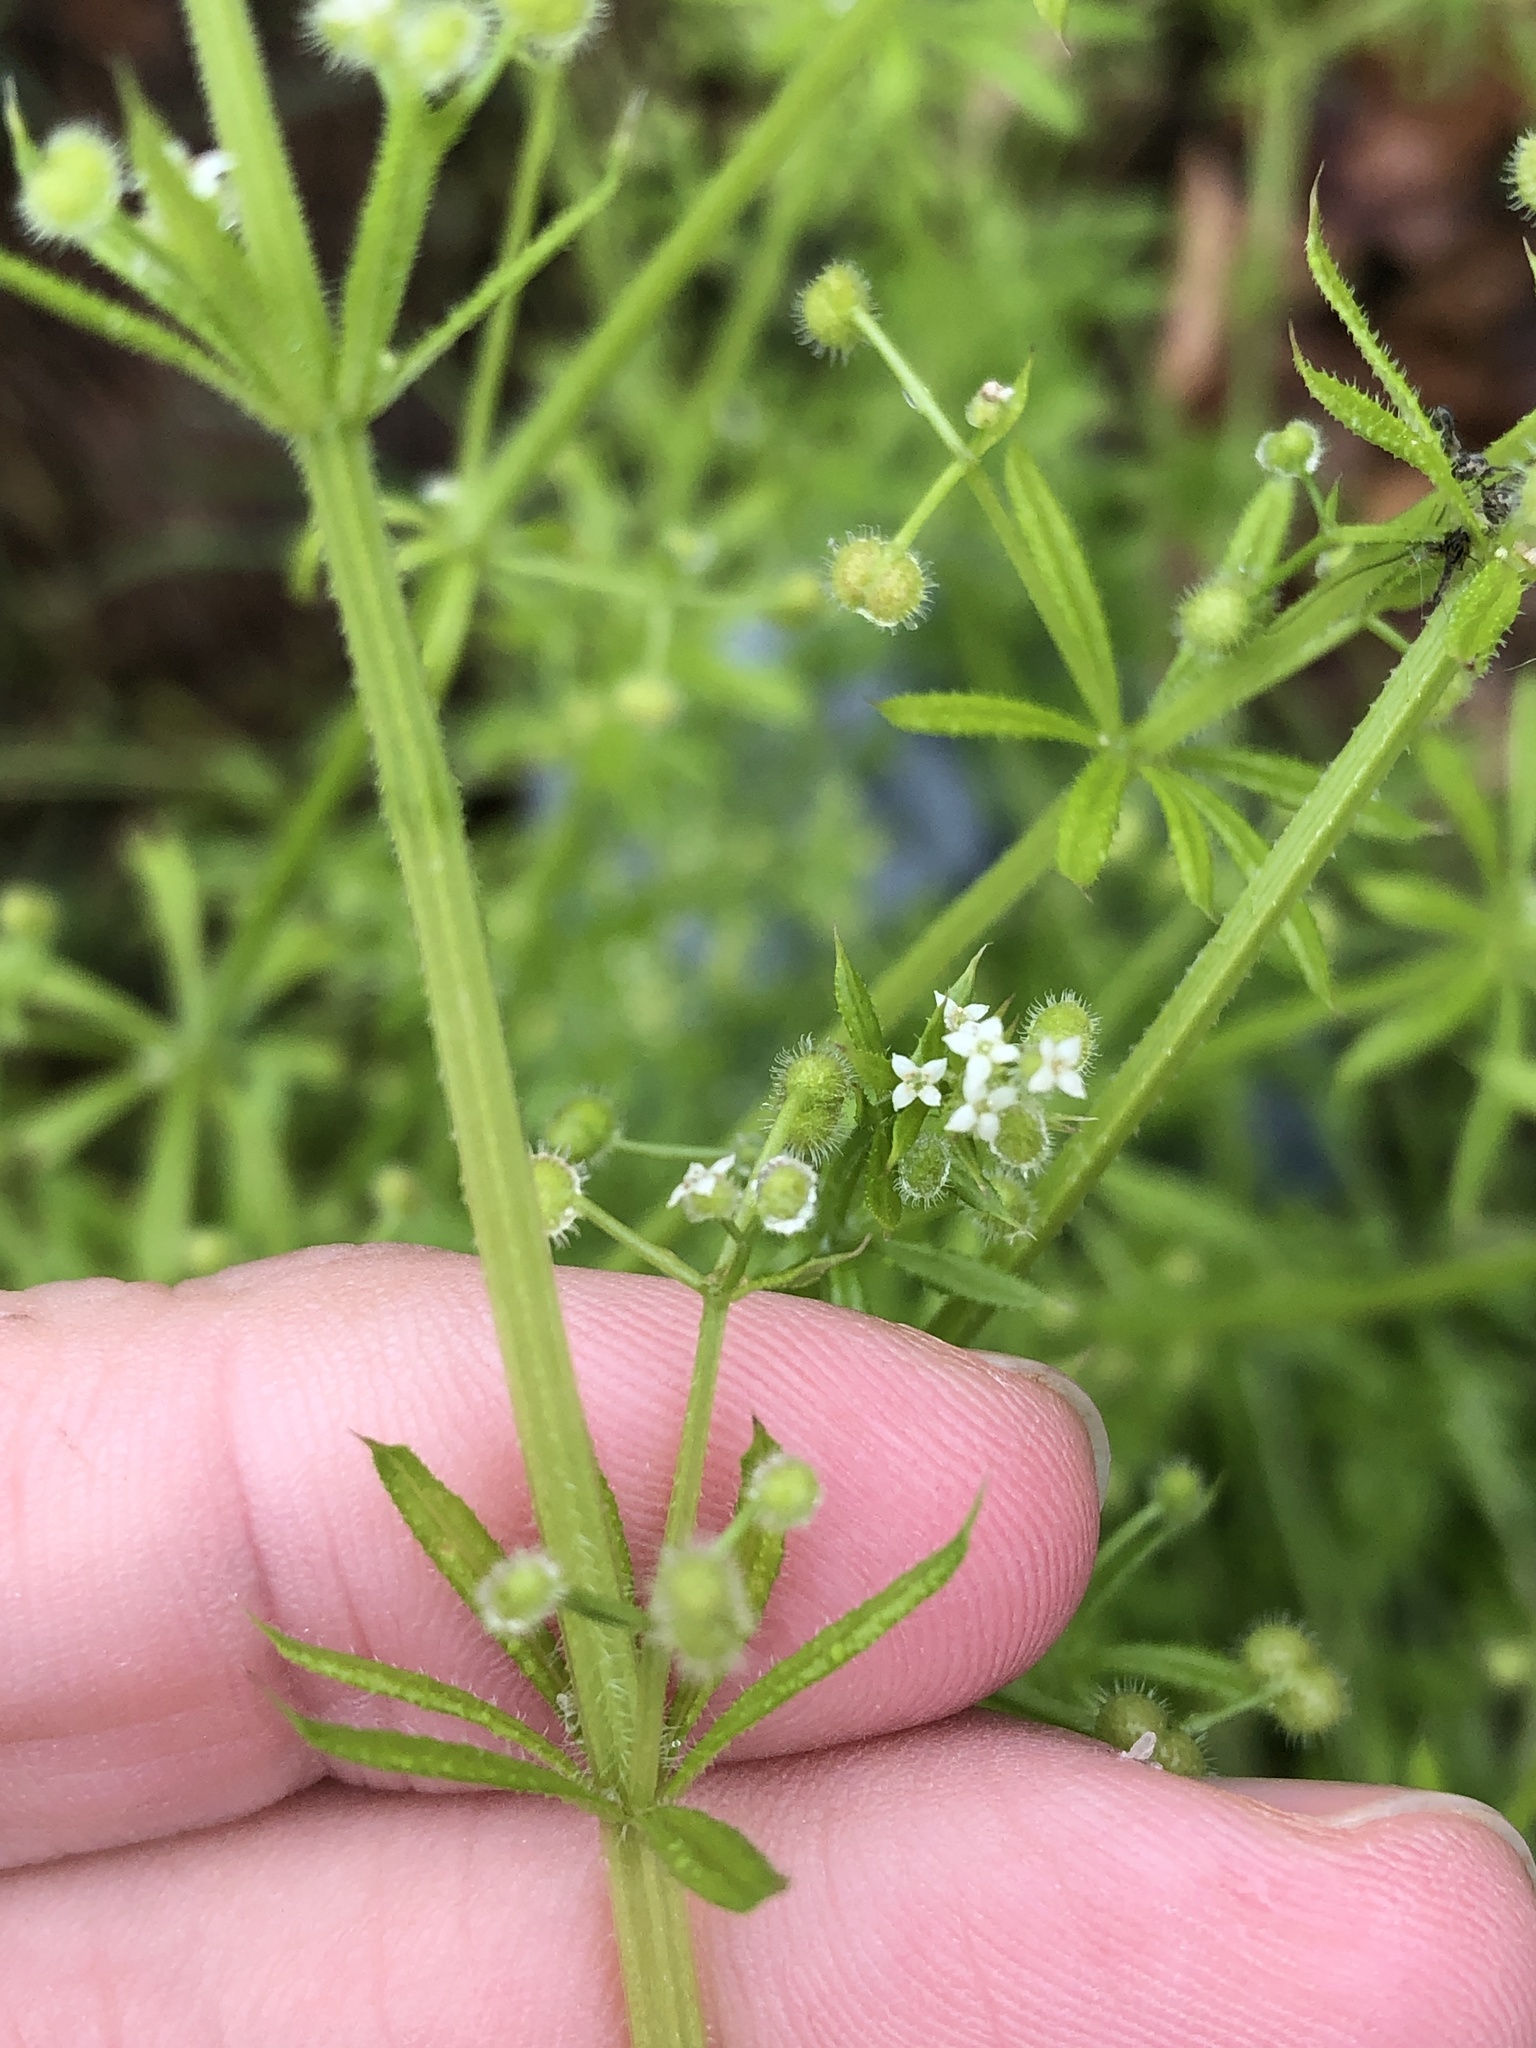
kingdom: Plantae
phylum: Tracheophyta
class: Magnoliopsida
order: Gentianales
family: Rubiaceae
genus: Galium
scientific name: Galium aparine
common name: Cleavers
